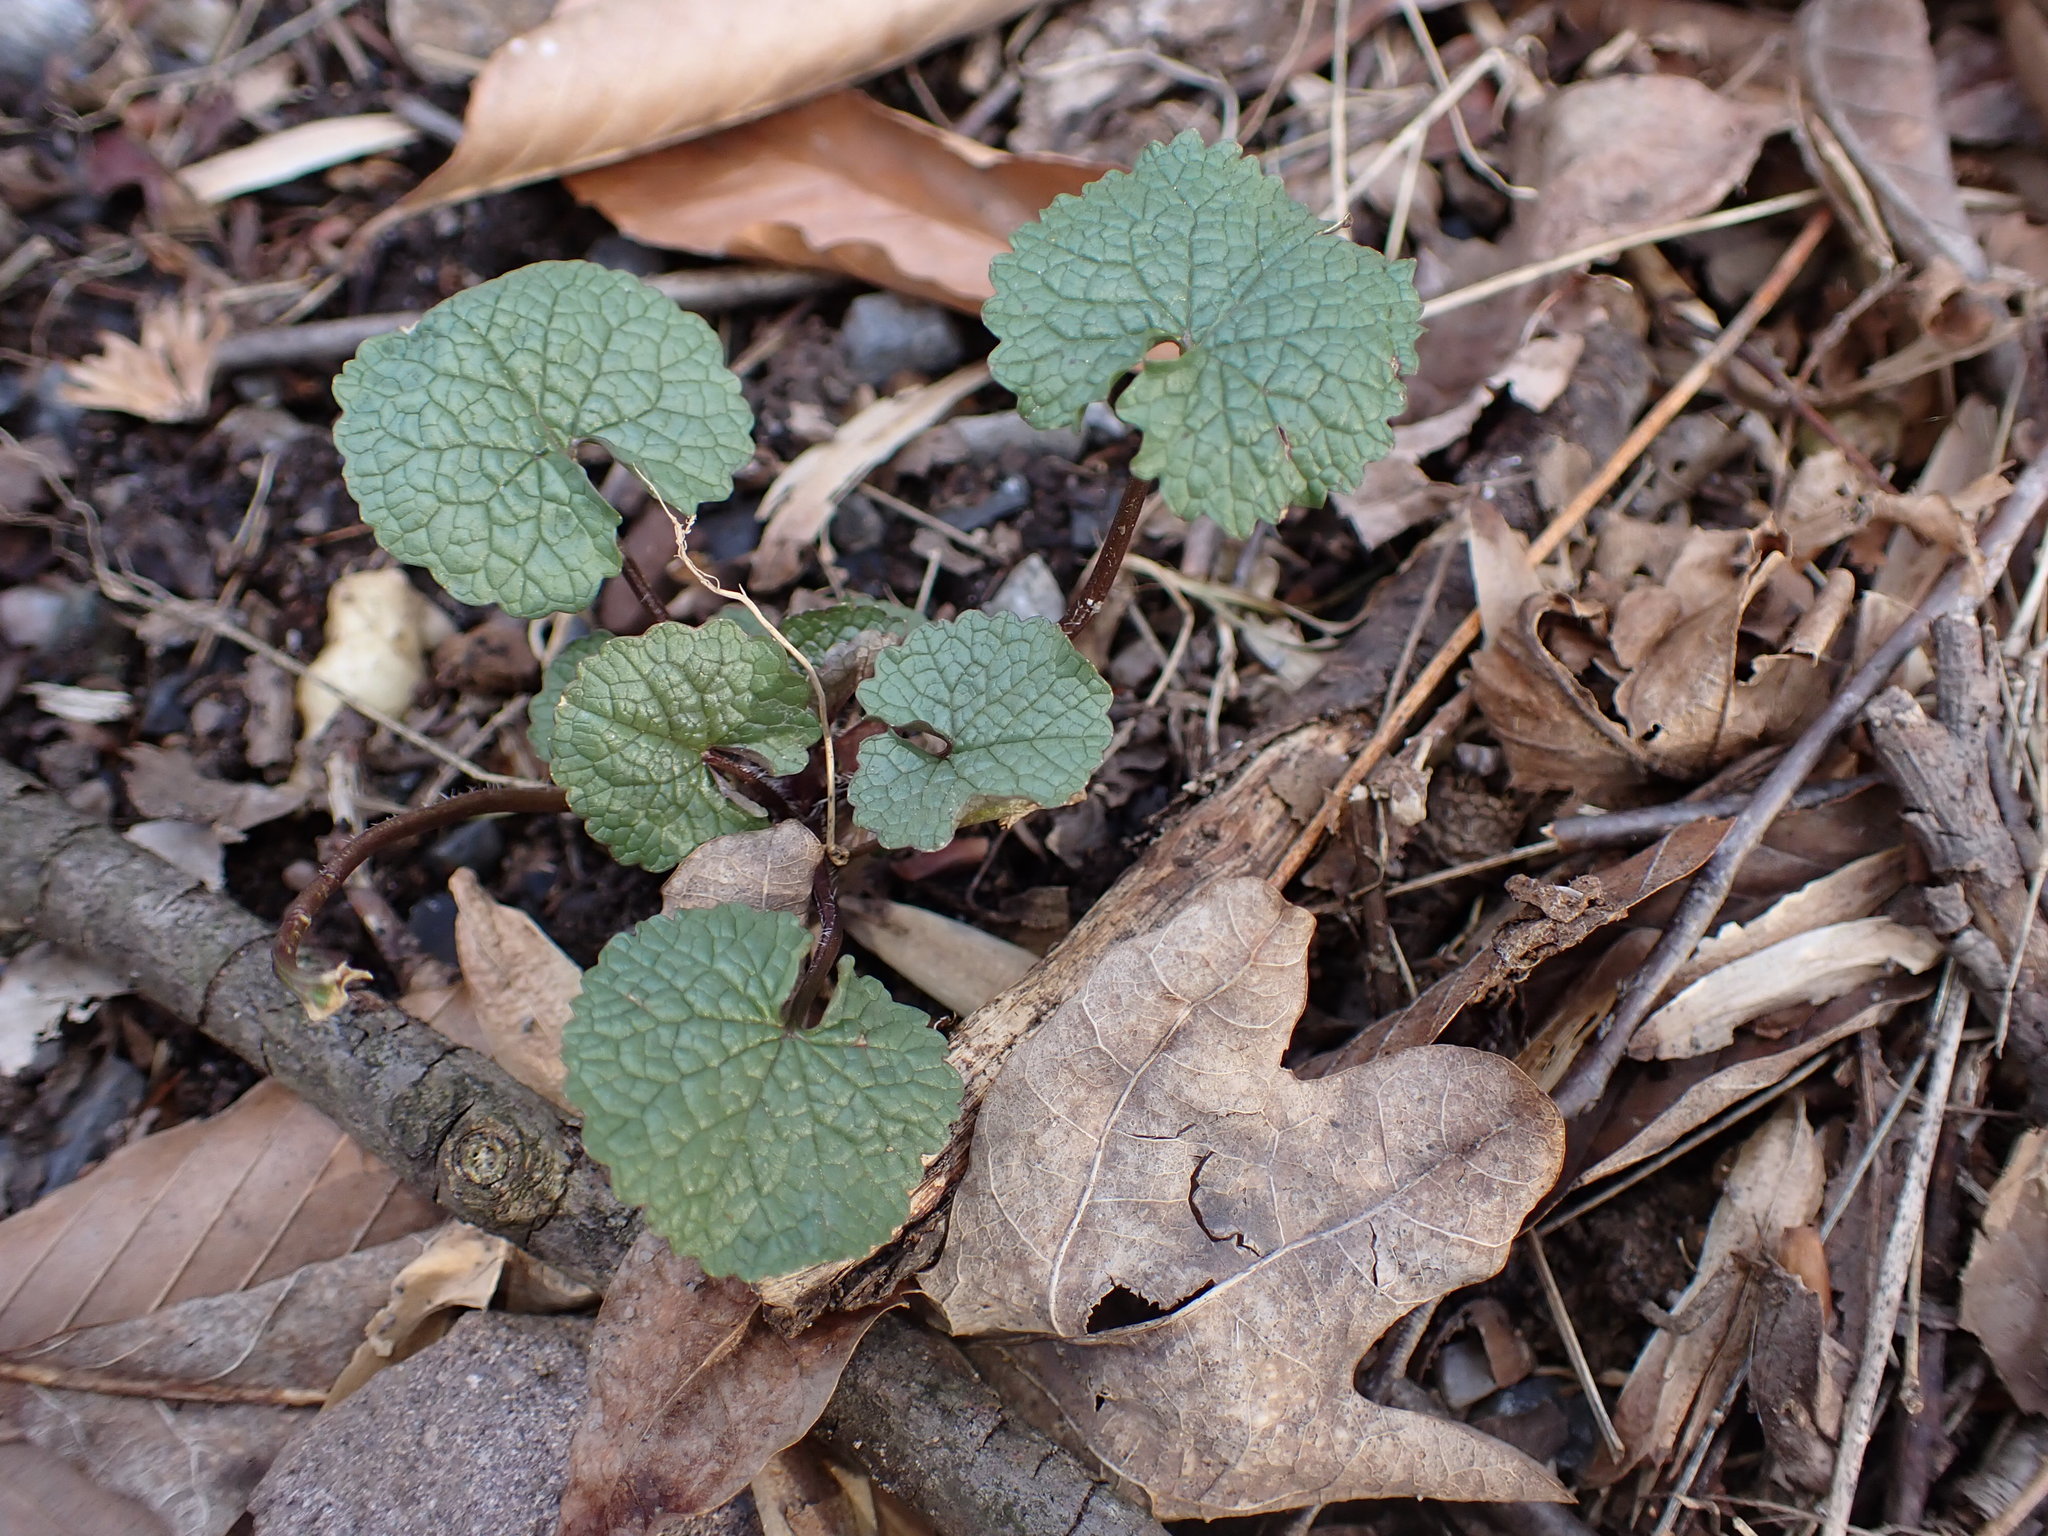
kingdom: Plantae
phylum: Tracheophyta
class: Magnoliopsida
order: Brassicales
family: Brassicaceae
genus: Alliaria
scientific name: Alliaria petiolata
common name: Garlic mustard
